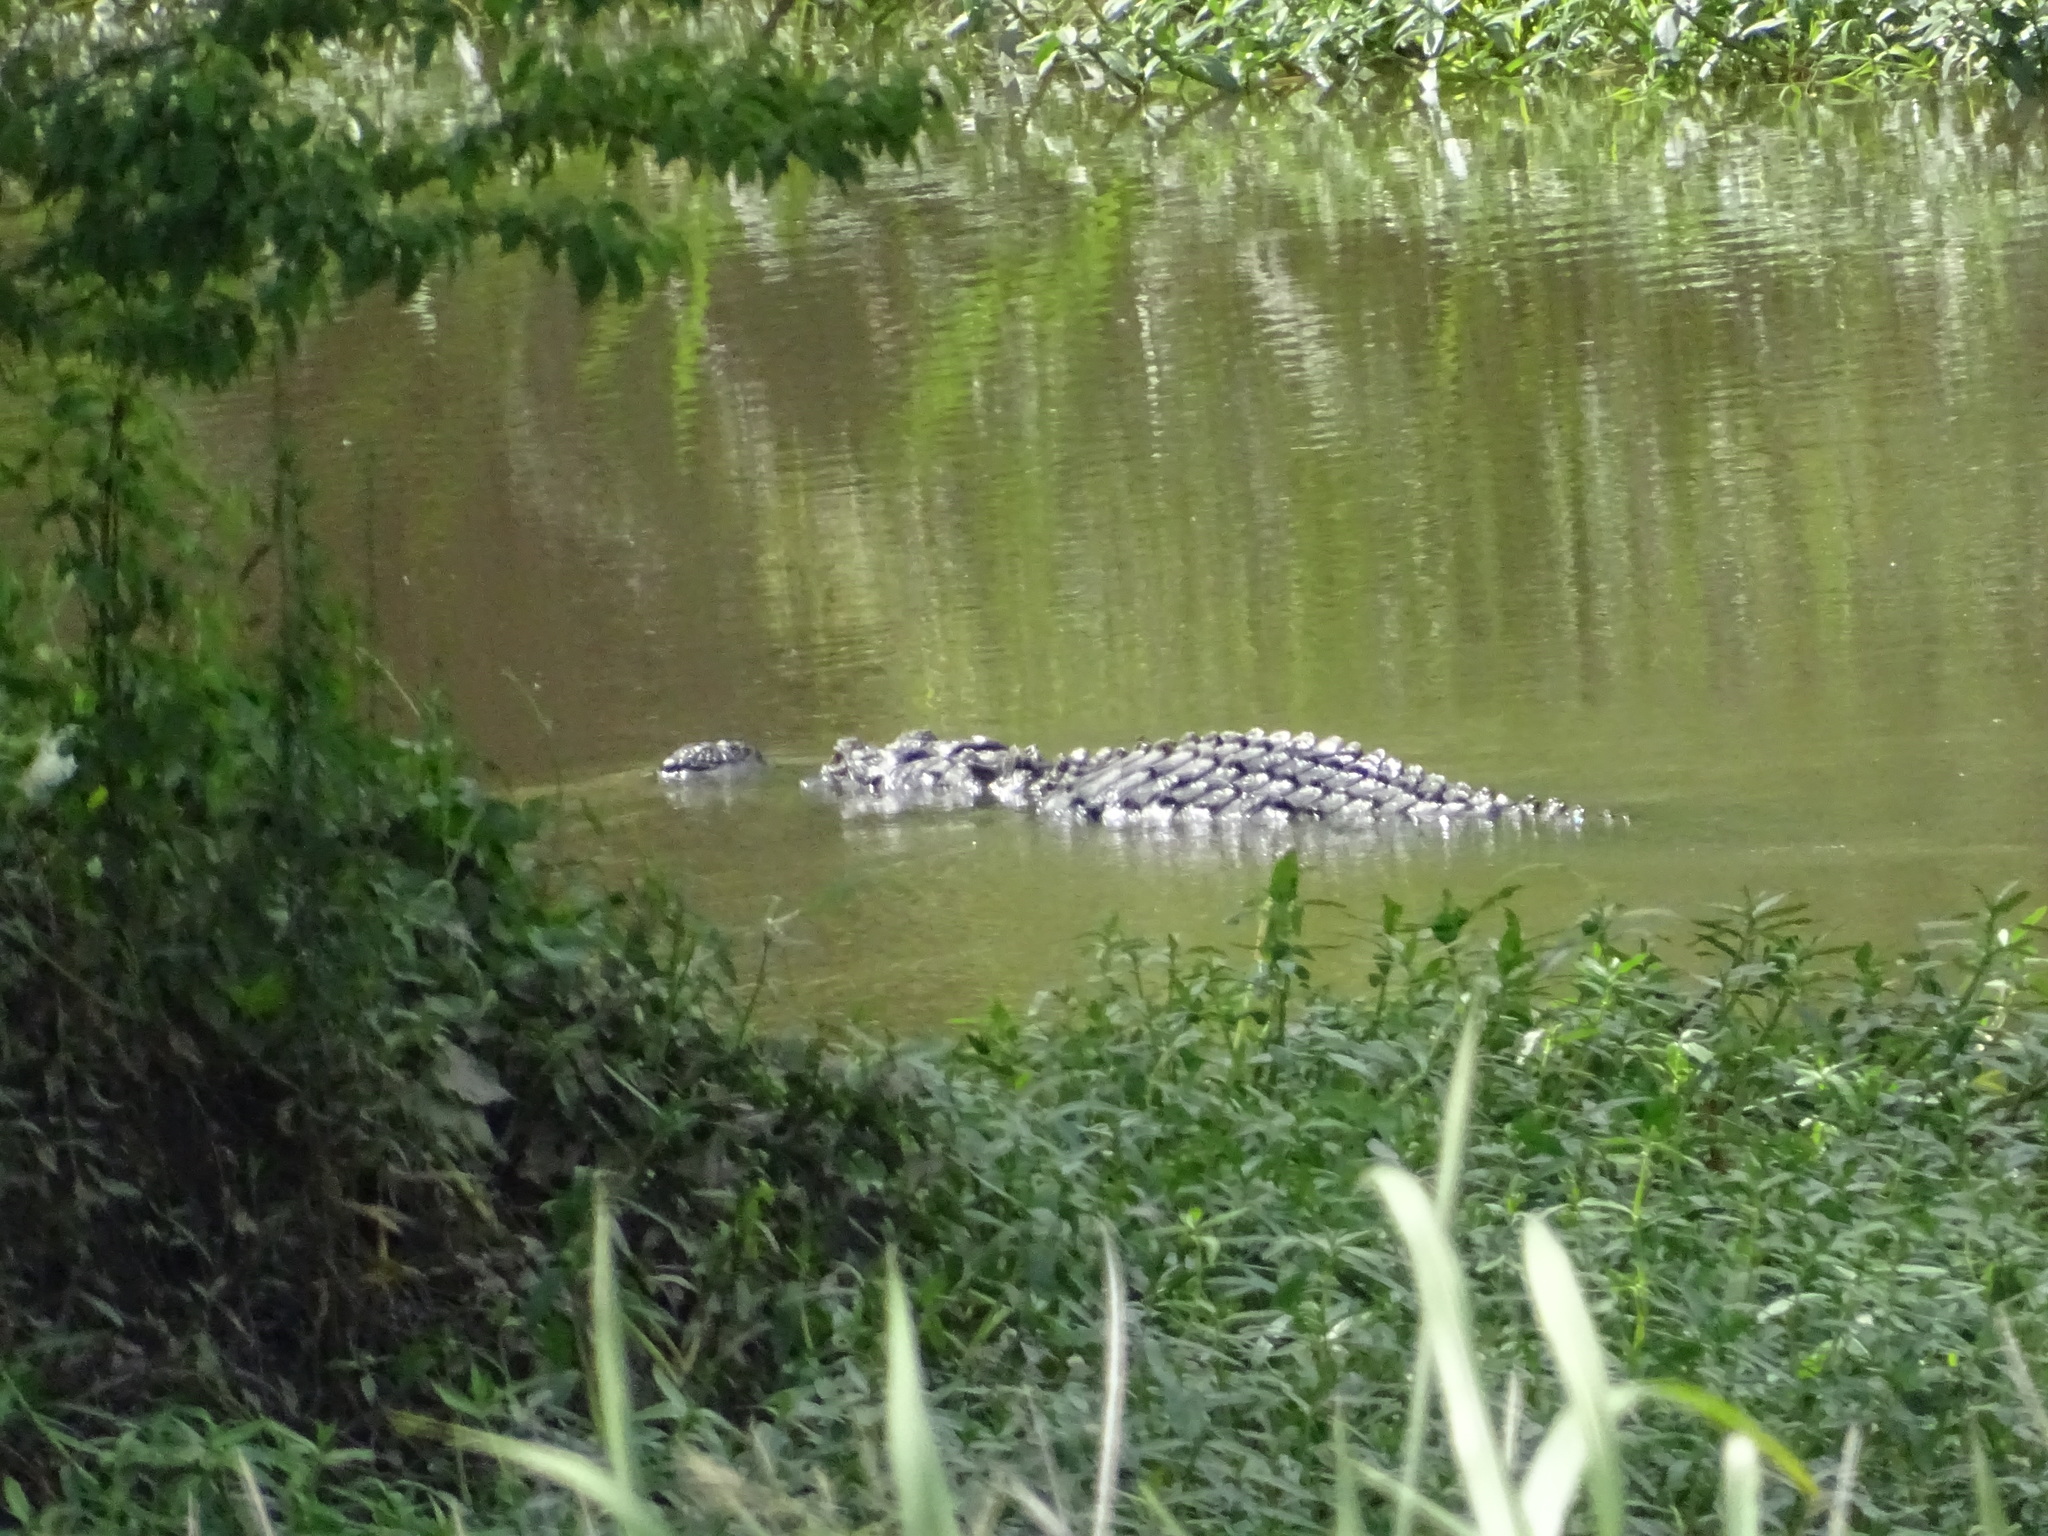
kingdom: Animalia
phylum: Chordata
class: Crocodylia
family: Alligatoridae
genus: Alligator
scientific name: Alligator mississippiensis
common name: American alligator
